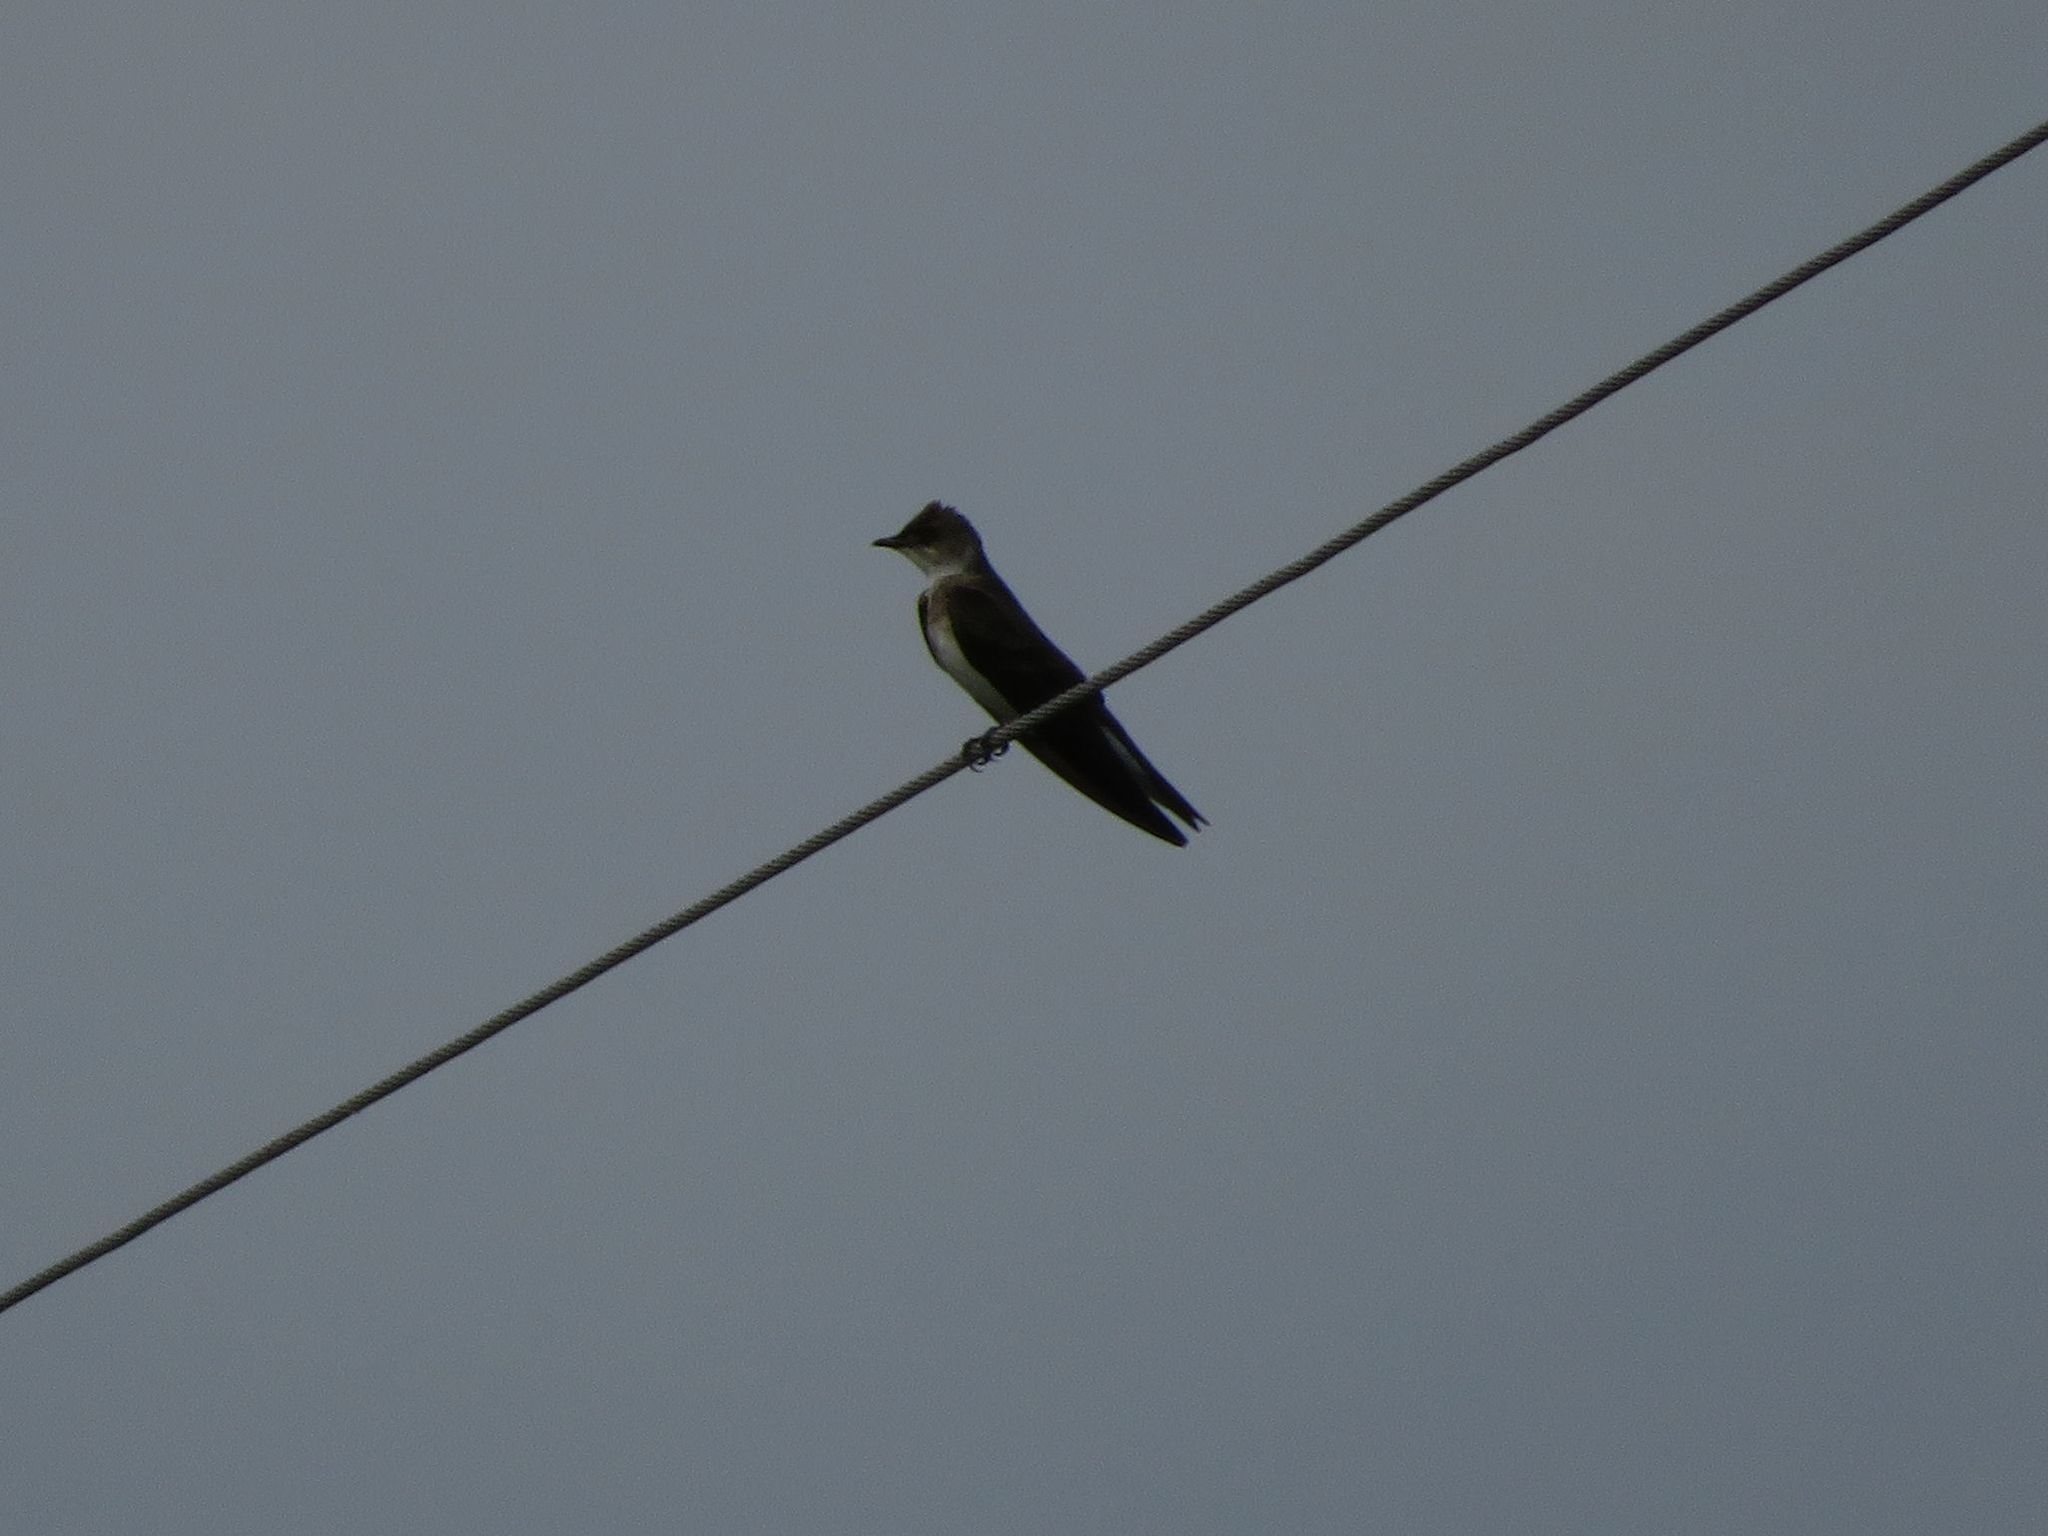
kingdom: Animalia
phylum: Chordata
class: Aves
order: Passeriformes
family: Hirundinidae
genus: Progne
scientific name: Progne tapera
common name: Brown-chested martin
